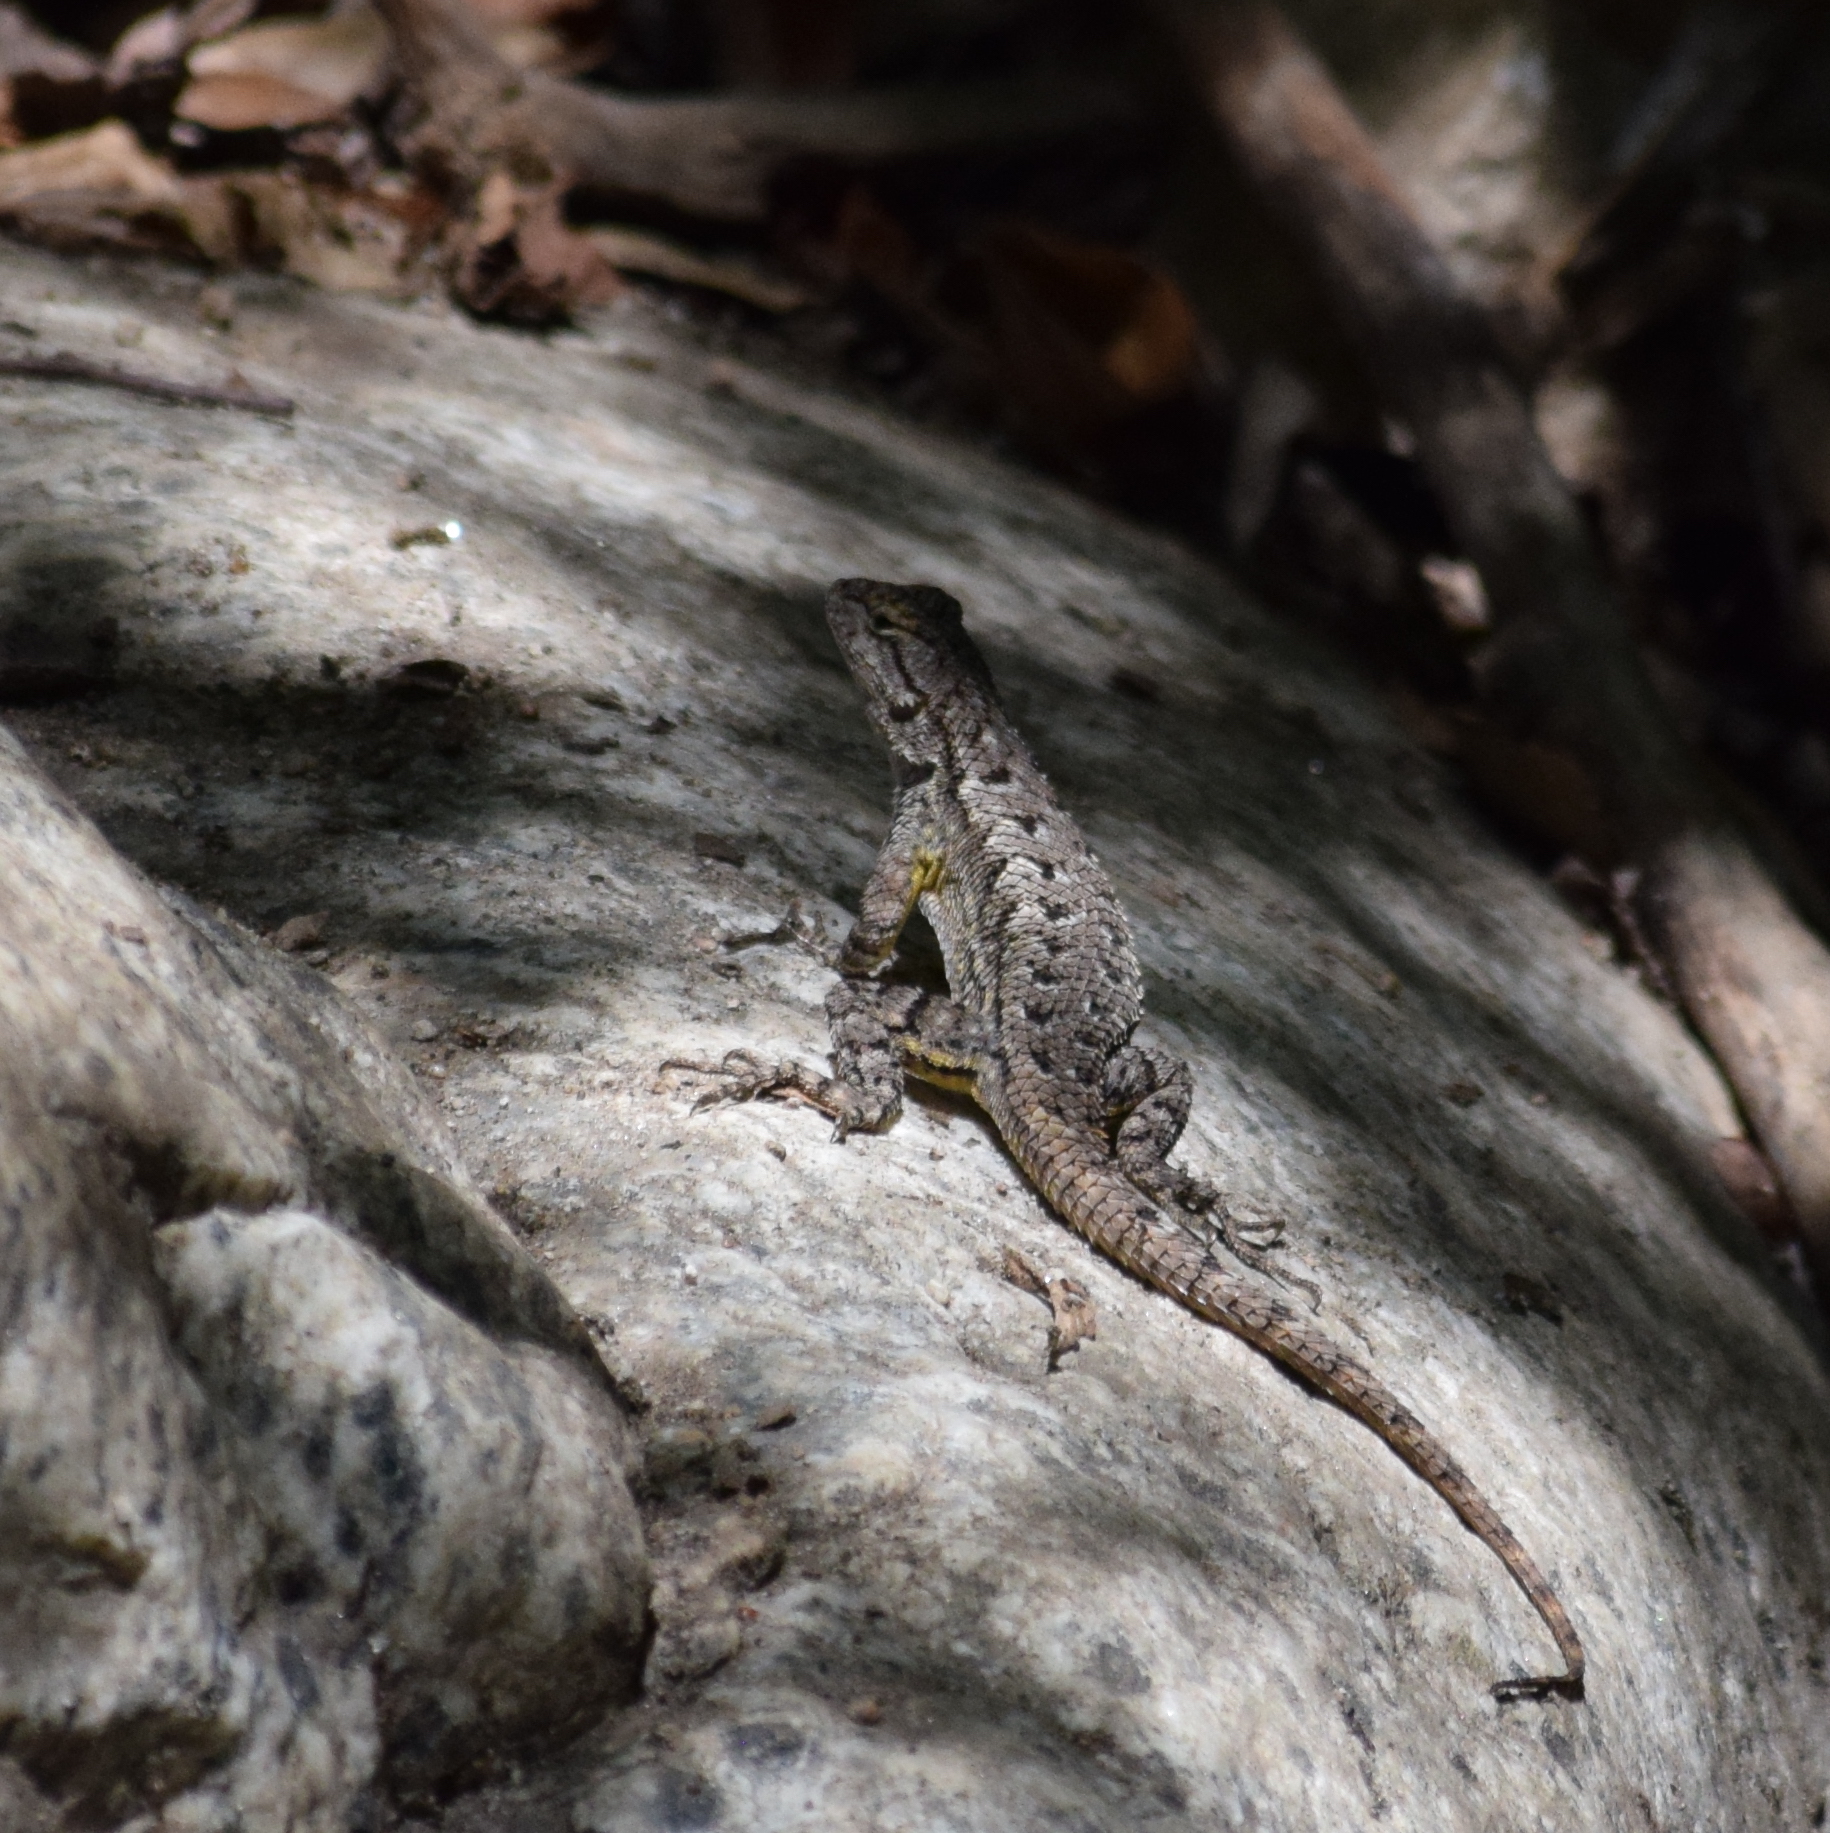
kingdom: Animalia
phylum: Chordata
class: Squamata
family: Phrynosomatidae
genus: Sceloporus
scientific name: Sceloporus occidentalis
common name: Western fence lizard
